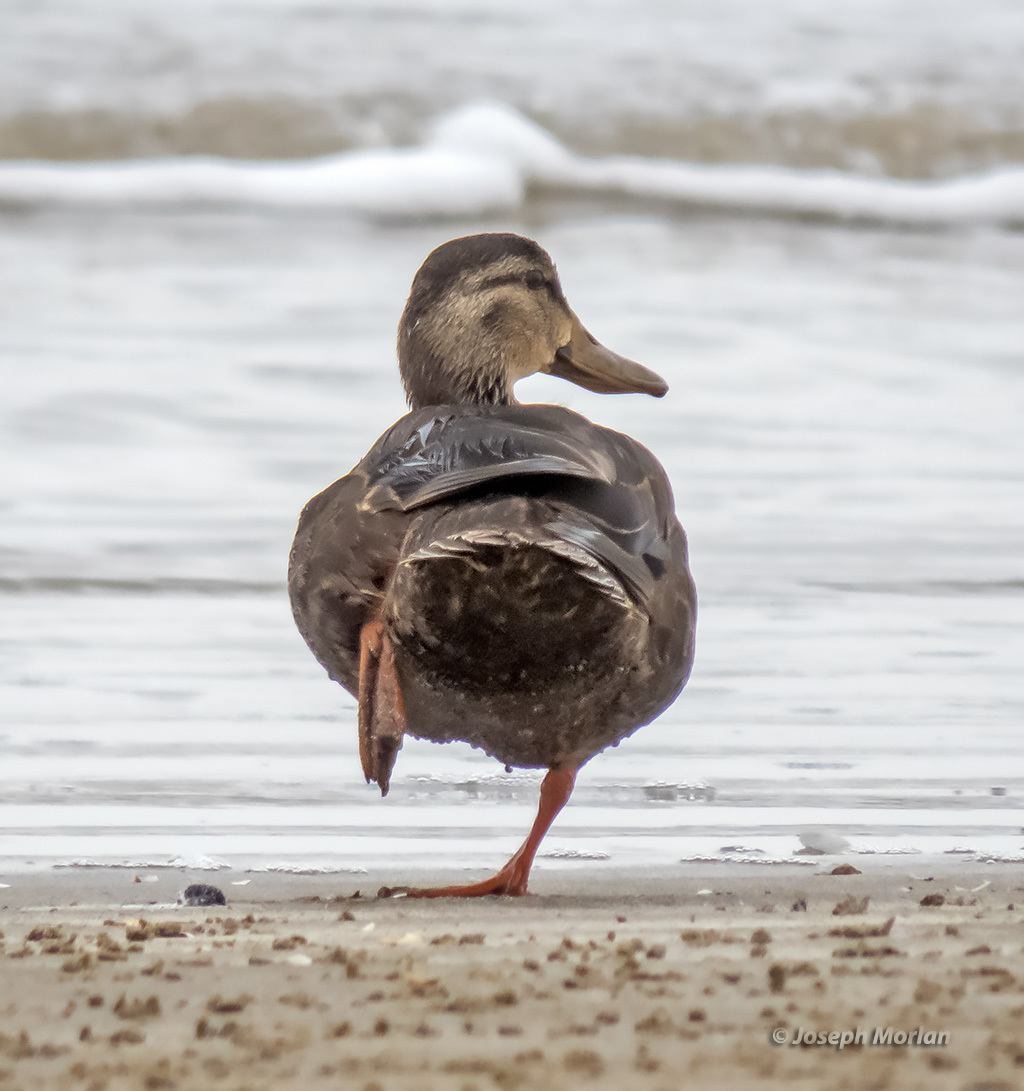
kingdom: Animalia
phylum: Chordata
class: Aves
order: Anseriformes
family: Anatidae
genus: Anas
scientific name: Anas fulvigula
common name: Mottled duck
